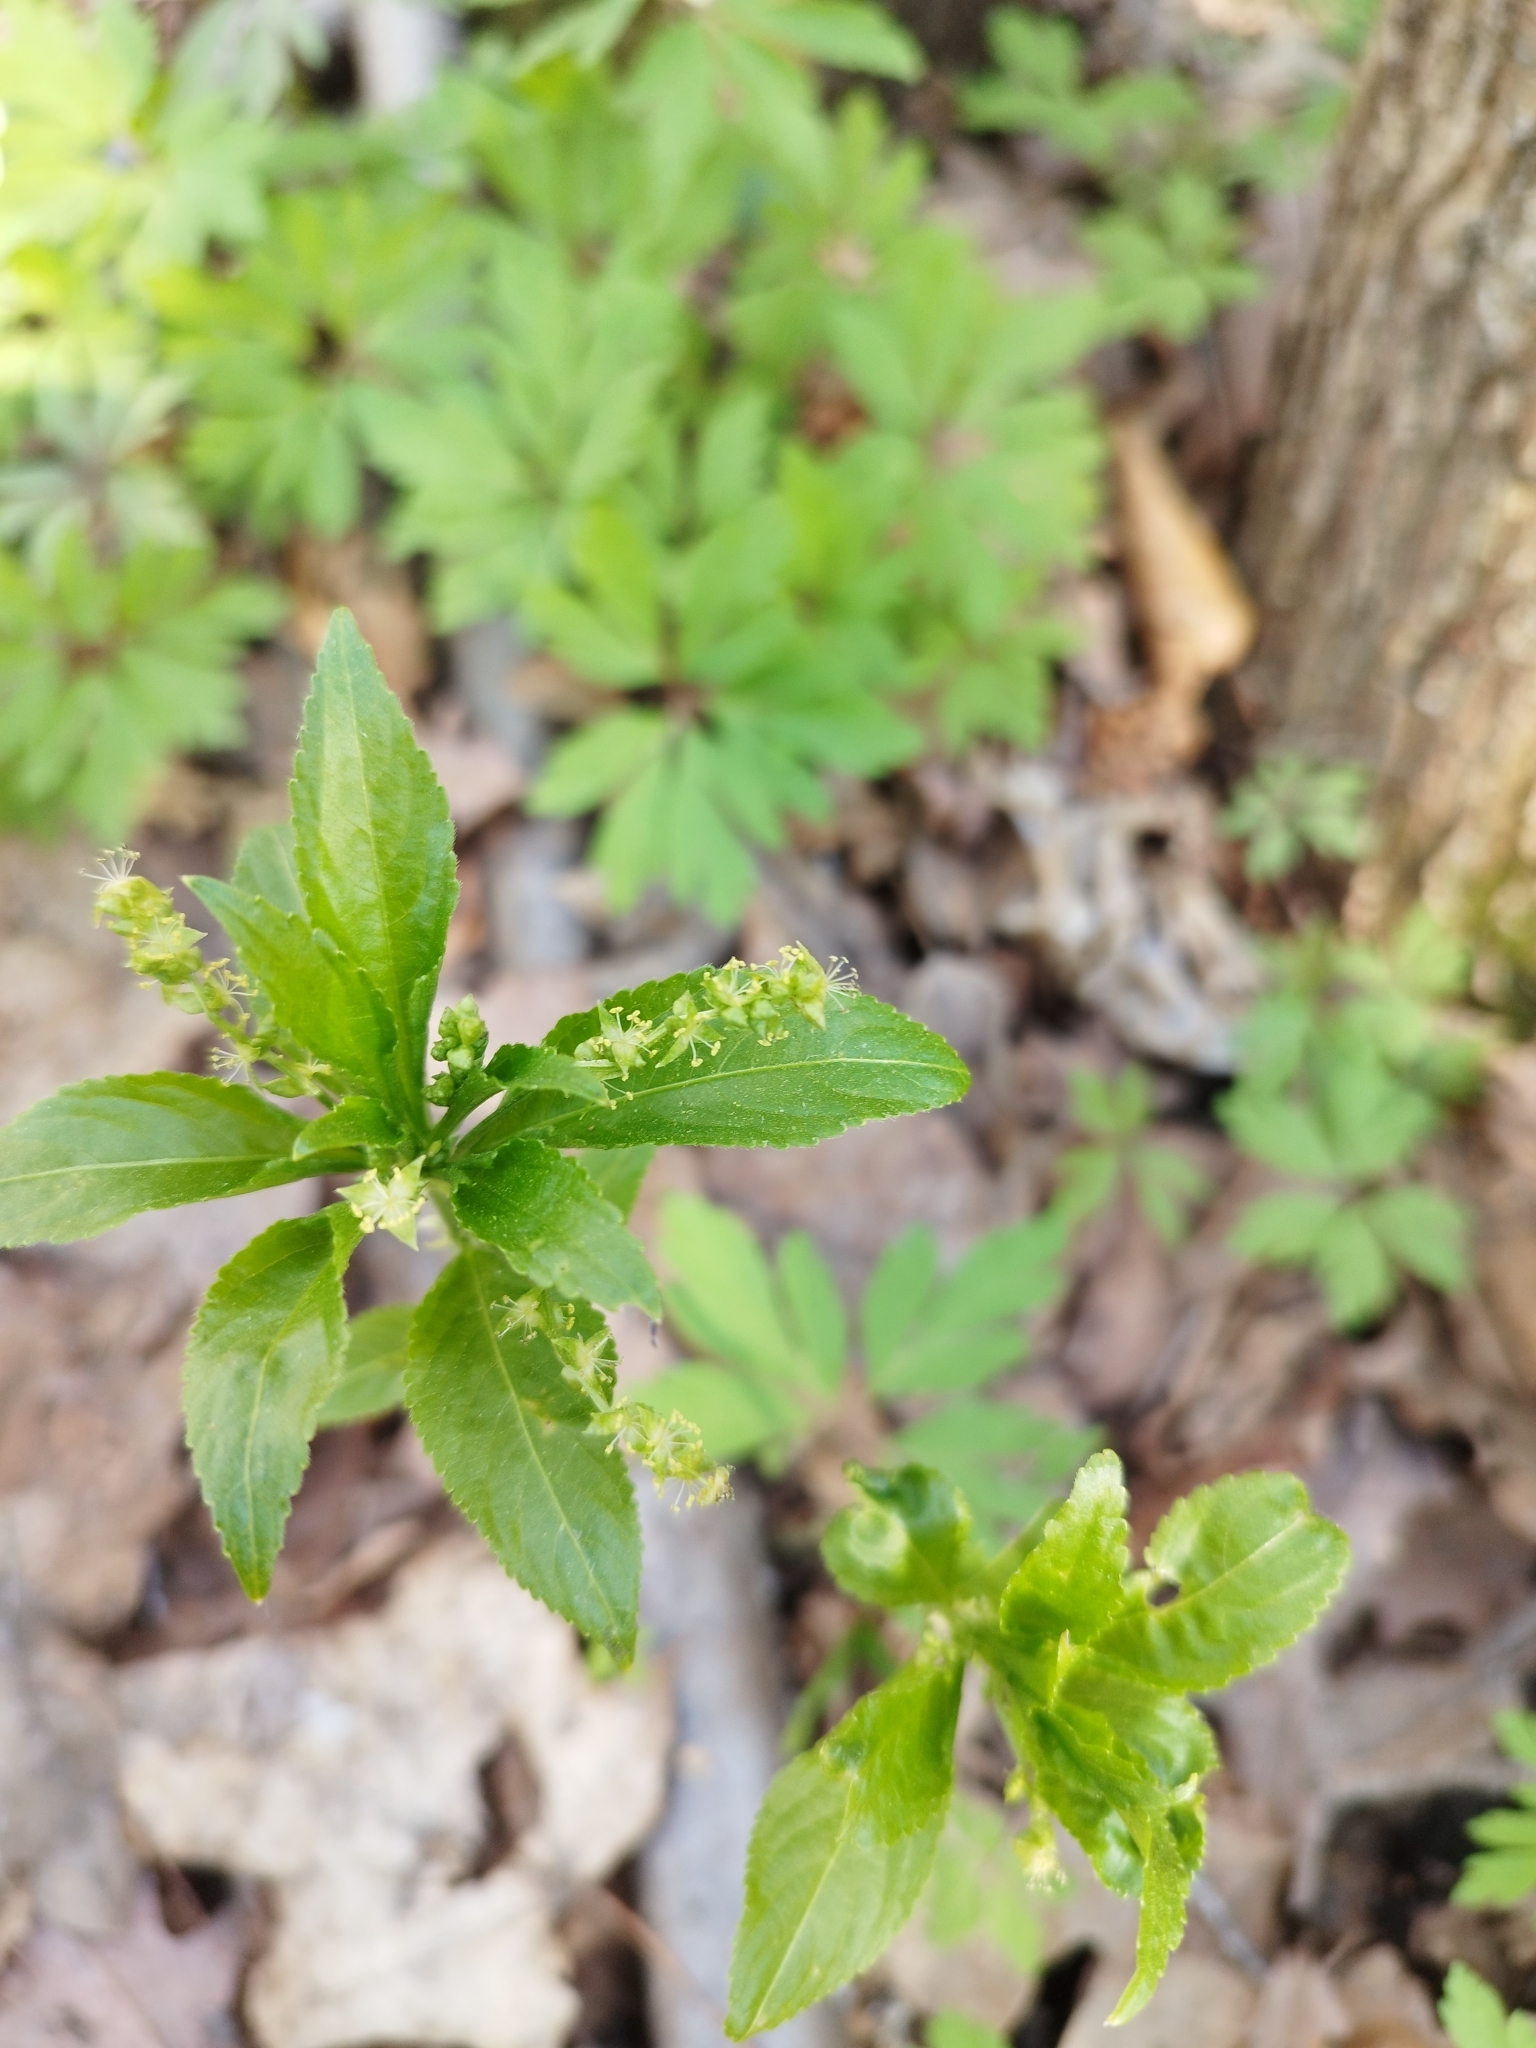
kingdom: Plantae
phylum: Tracheophyta
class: Magnoliopsida
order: Malpighiales
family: Euphorbiaceae
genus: Mercurialis
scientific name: Mercurialis perennis
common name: Dog mercury
